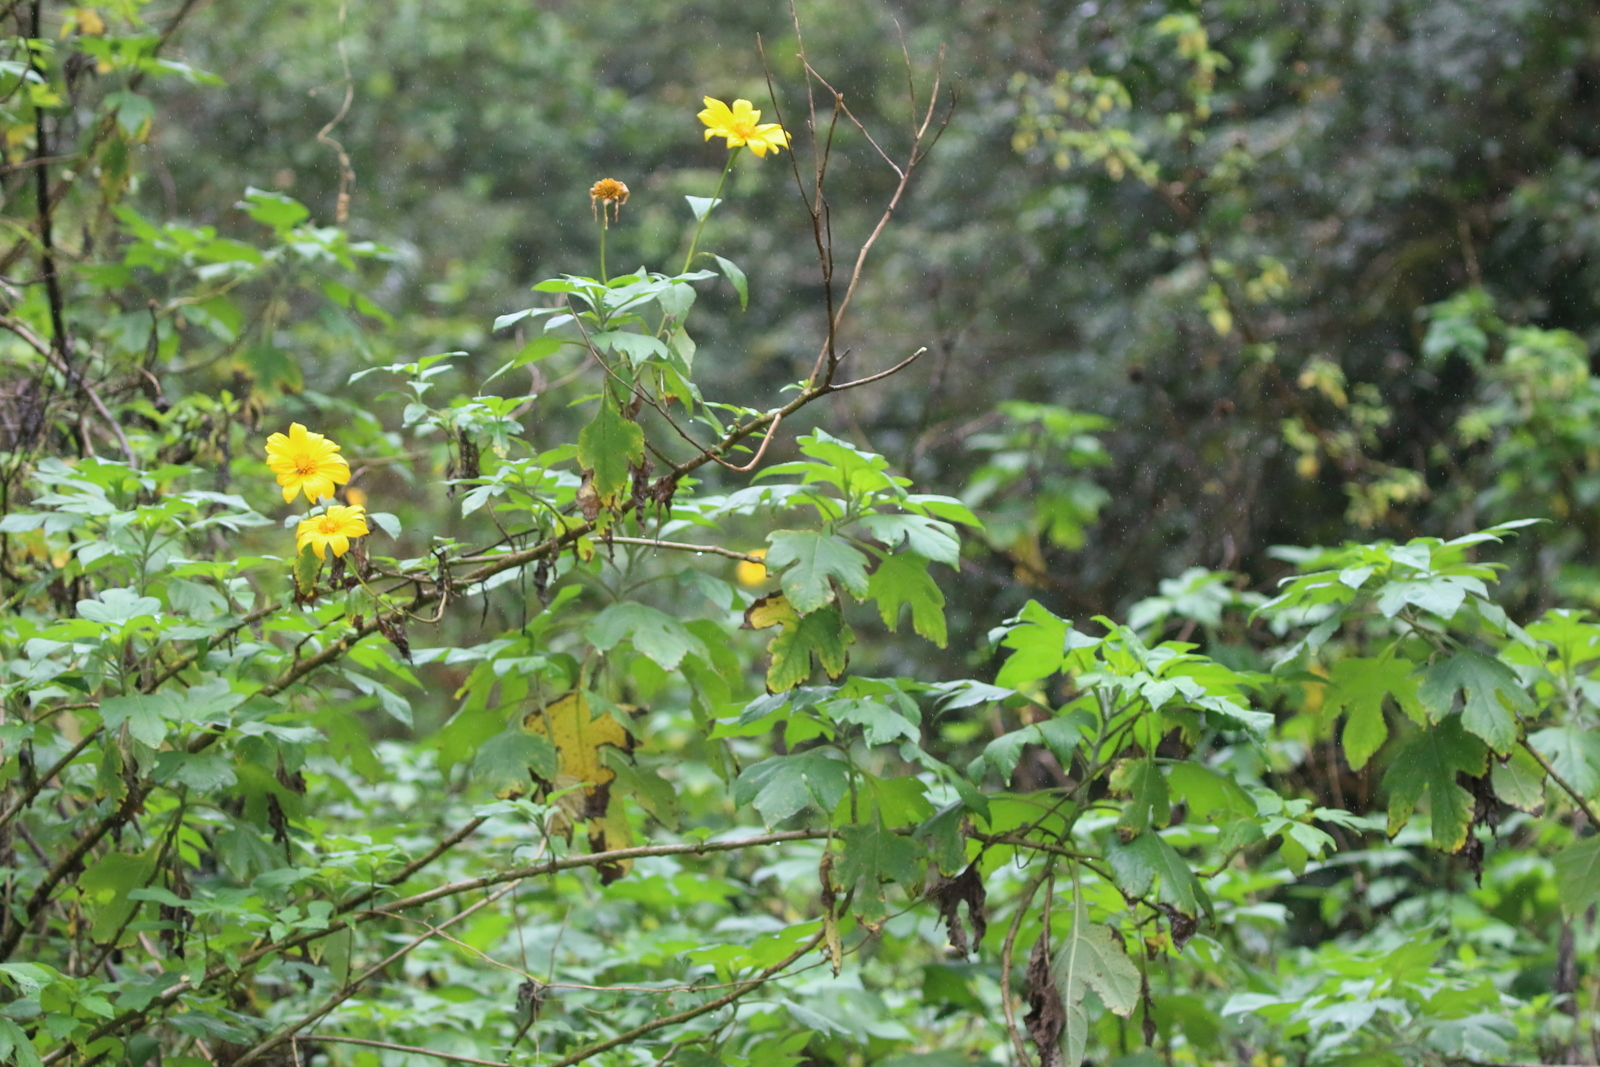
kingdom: Plantae
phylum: Tracheophyta
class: Magnoliopsida
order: Asterales
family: Asteraceae
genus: Tithonia
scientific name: Tithonia diversifolia
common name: Tree marigold
